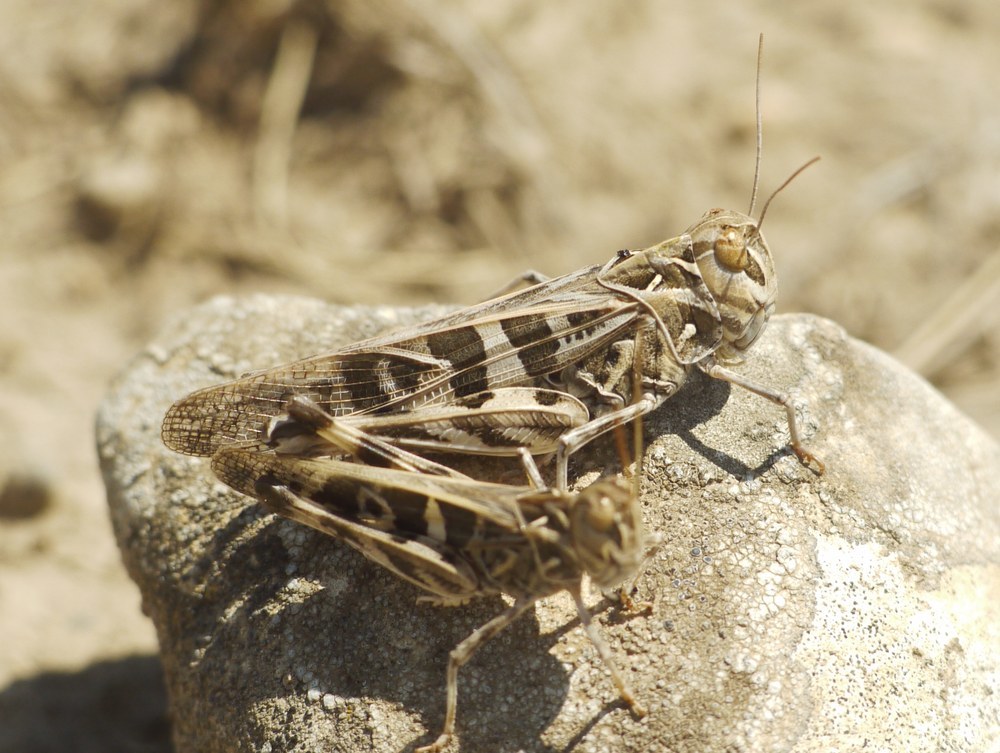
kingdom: Animalia
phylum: Arthropoda
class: Insecta
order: Orthoptera
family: Acrididae
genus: Oedaleus
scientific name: Oedaleus decorus
